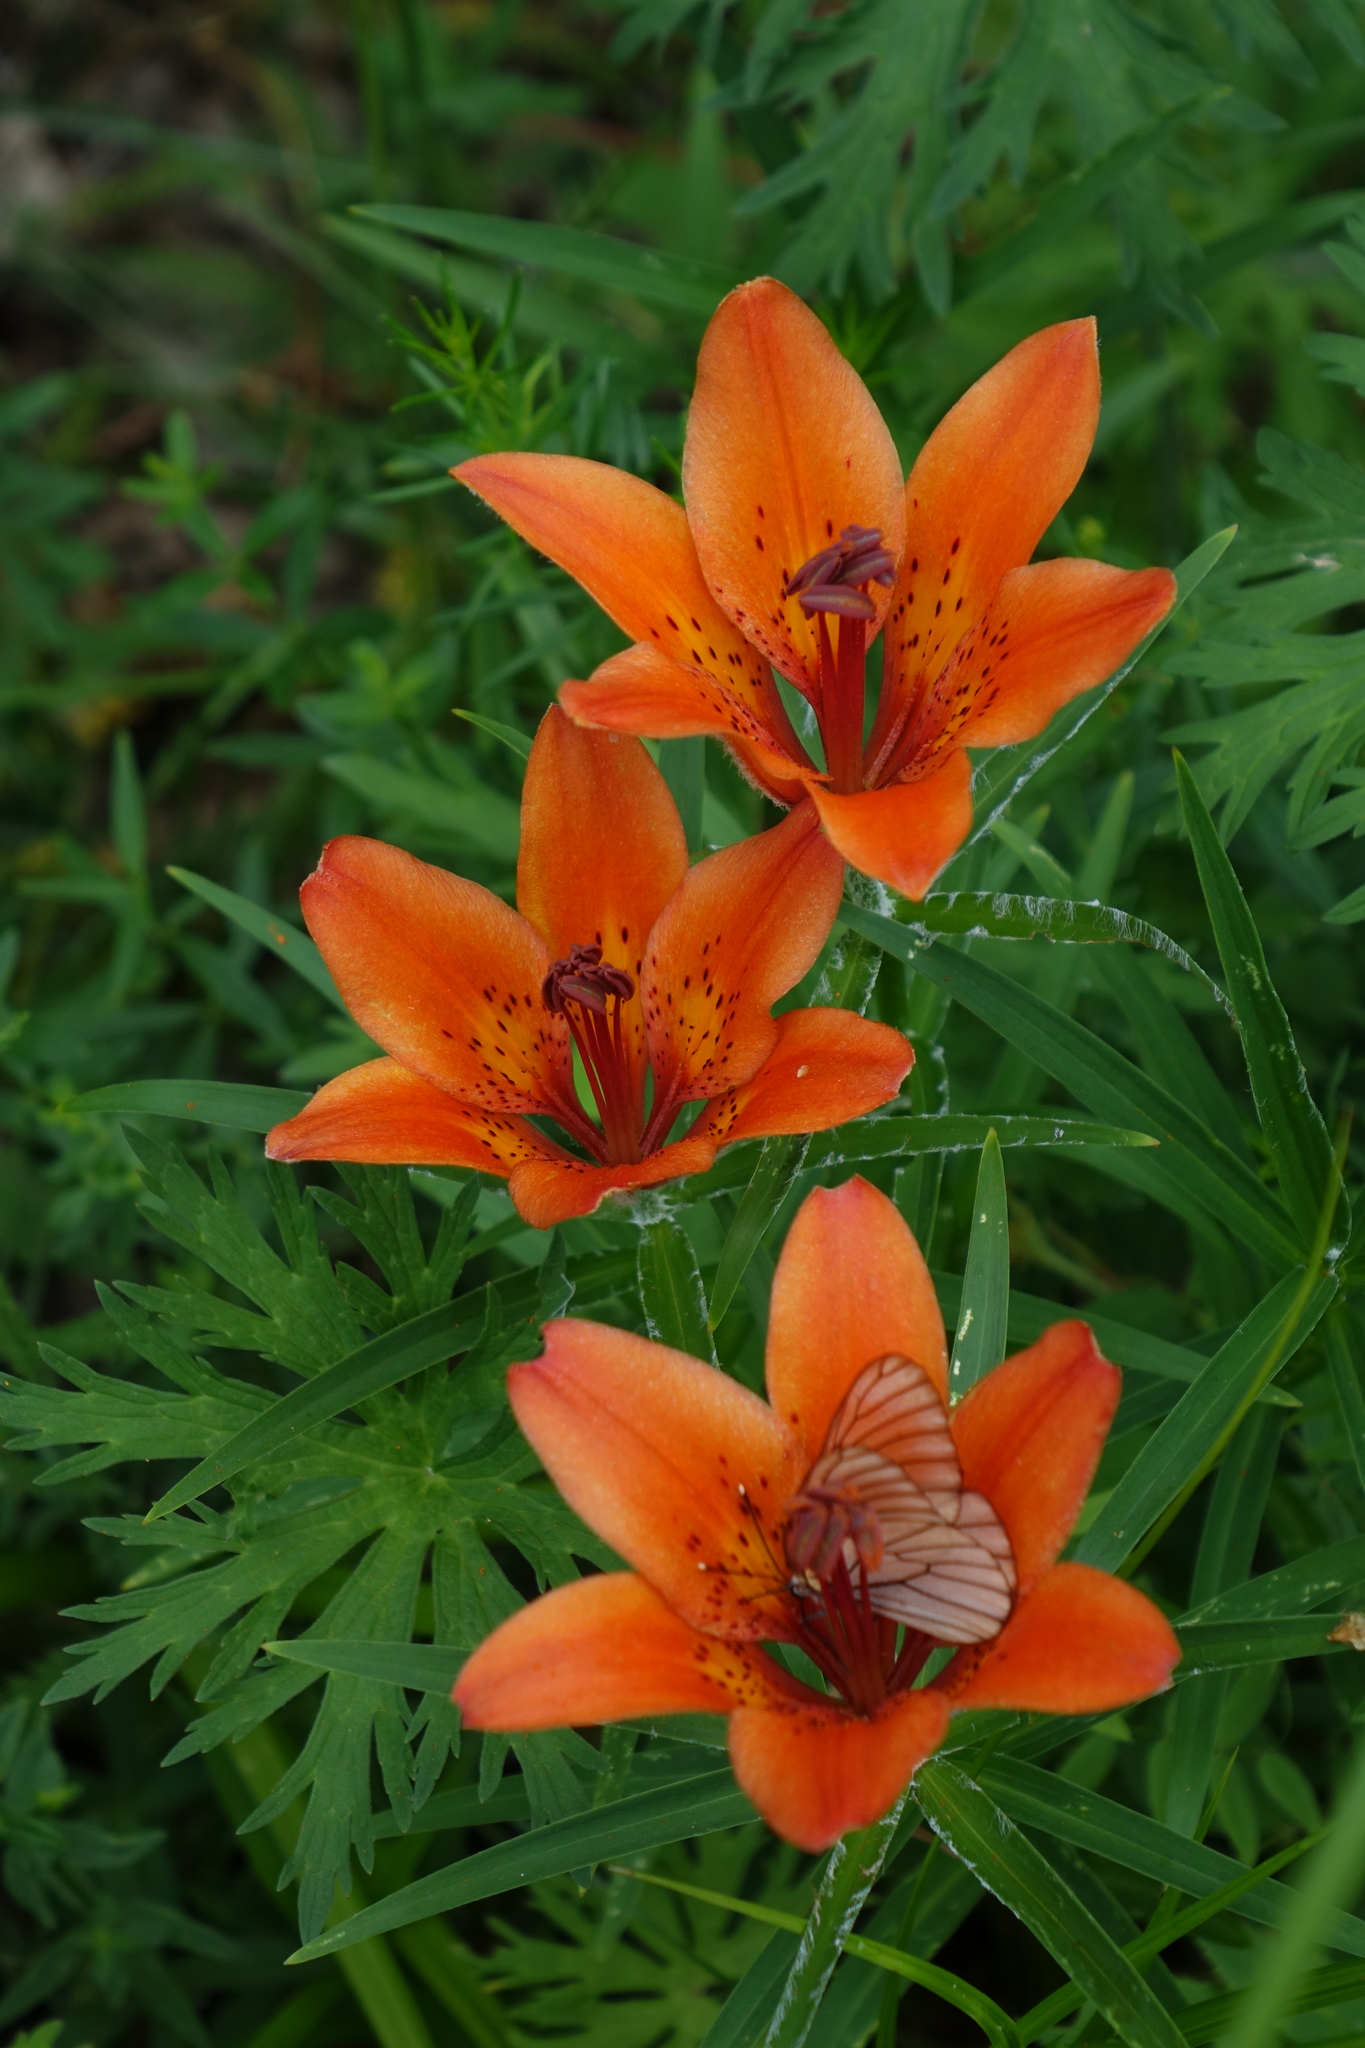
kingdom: Plantae
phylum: Tracheophyta
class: Liliopsida
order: Liliales
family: Liliaceae
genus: Lilium
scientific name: Lilium pensylvanicum
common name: Candlestick lily
